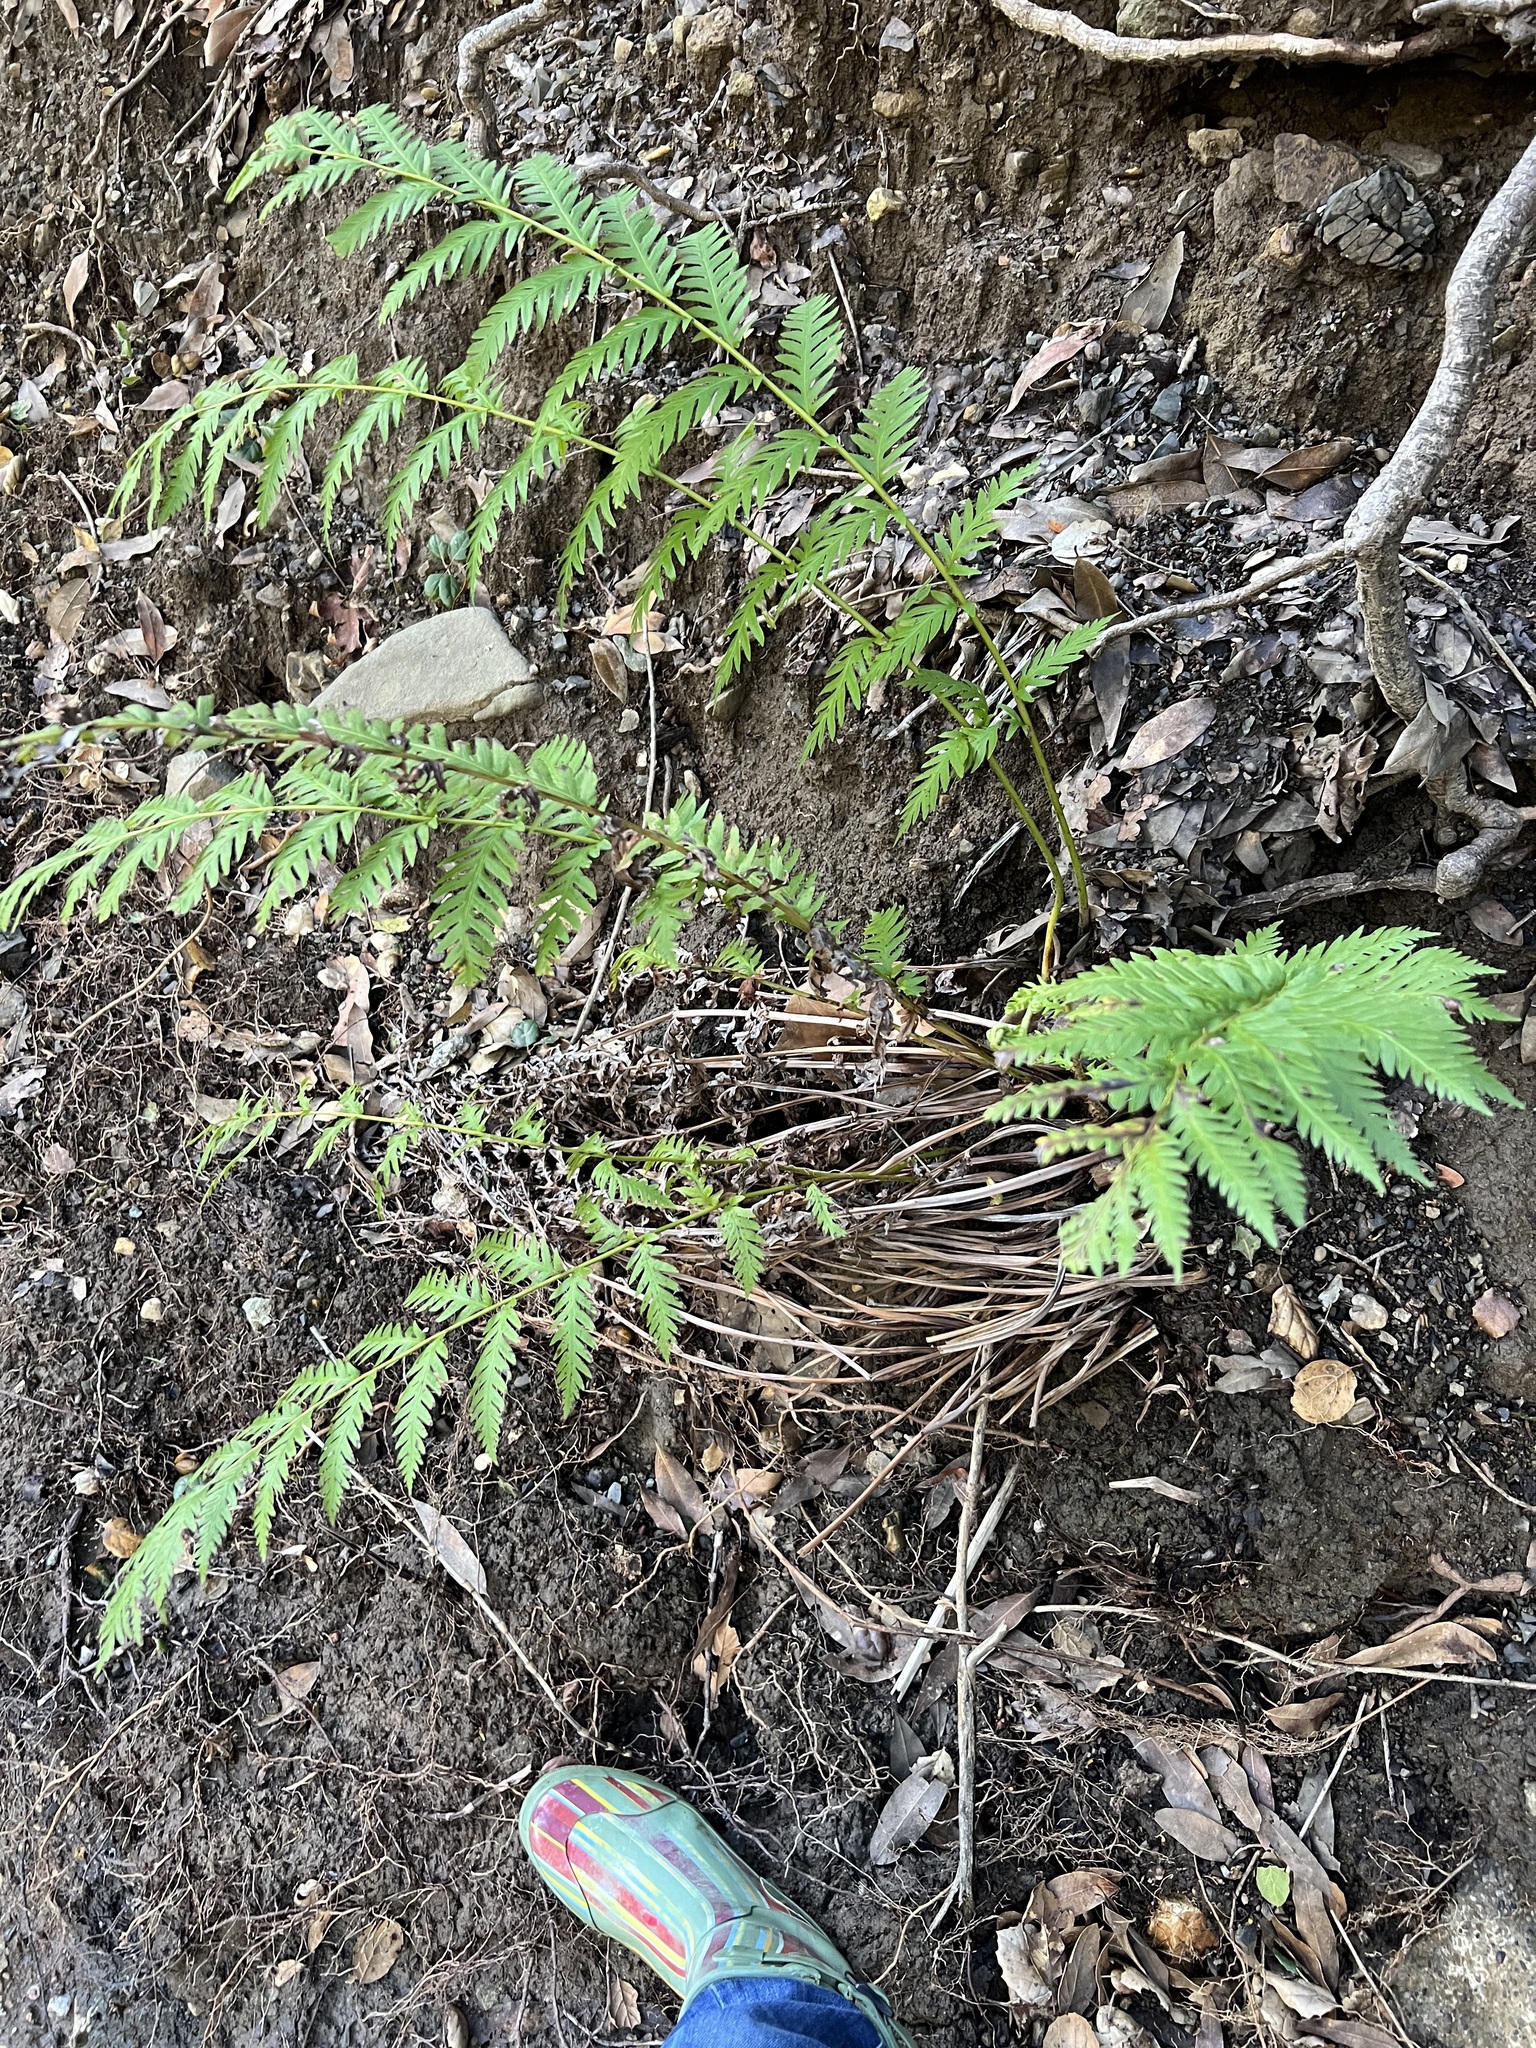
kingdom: Plantae
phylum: Tracheophyta
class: Polypodiopsida
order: Polypodiales
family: Blechnaceae
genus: Woodwardia
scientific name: Woodwardia fimbriata
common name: Giant chain fern
